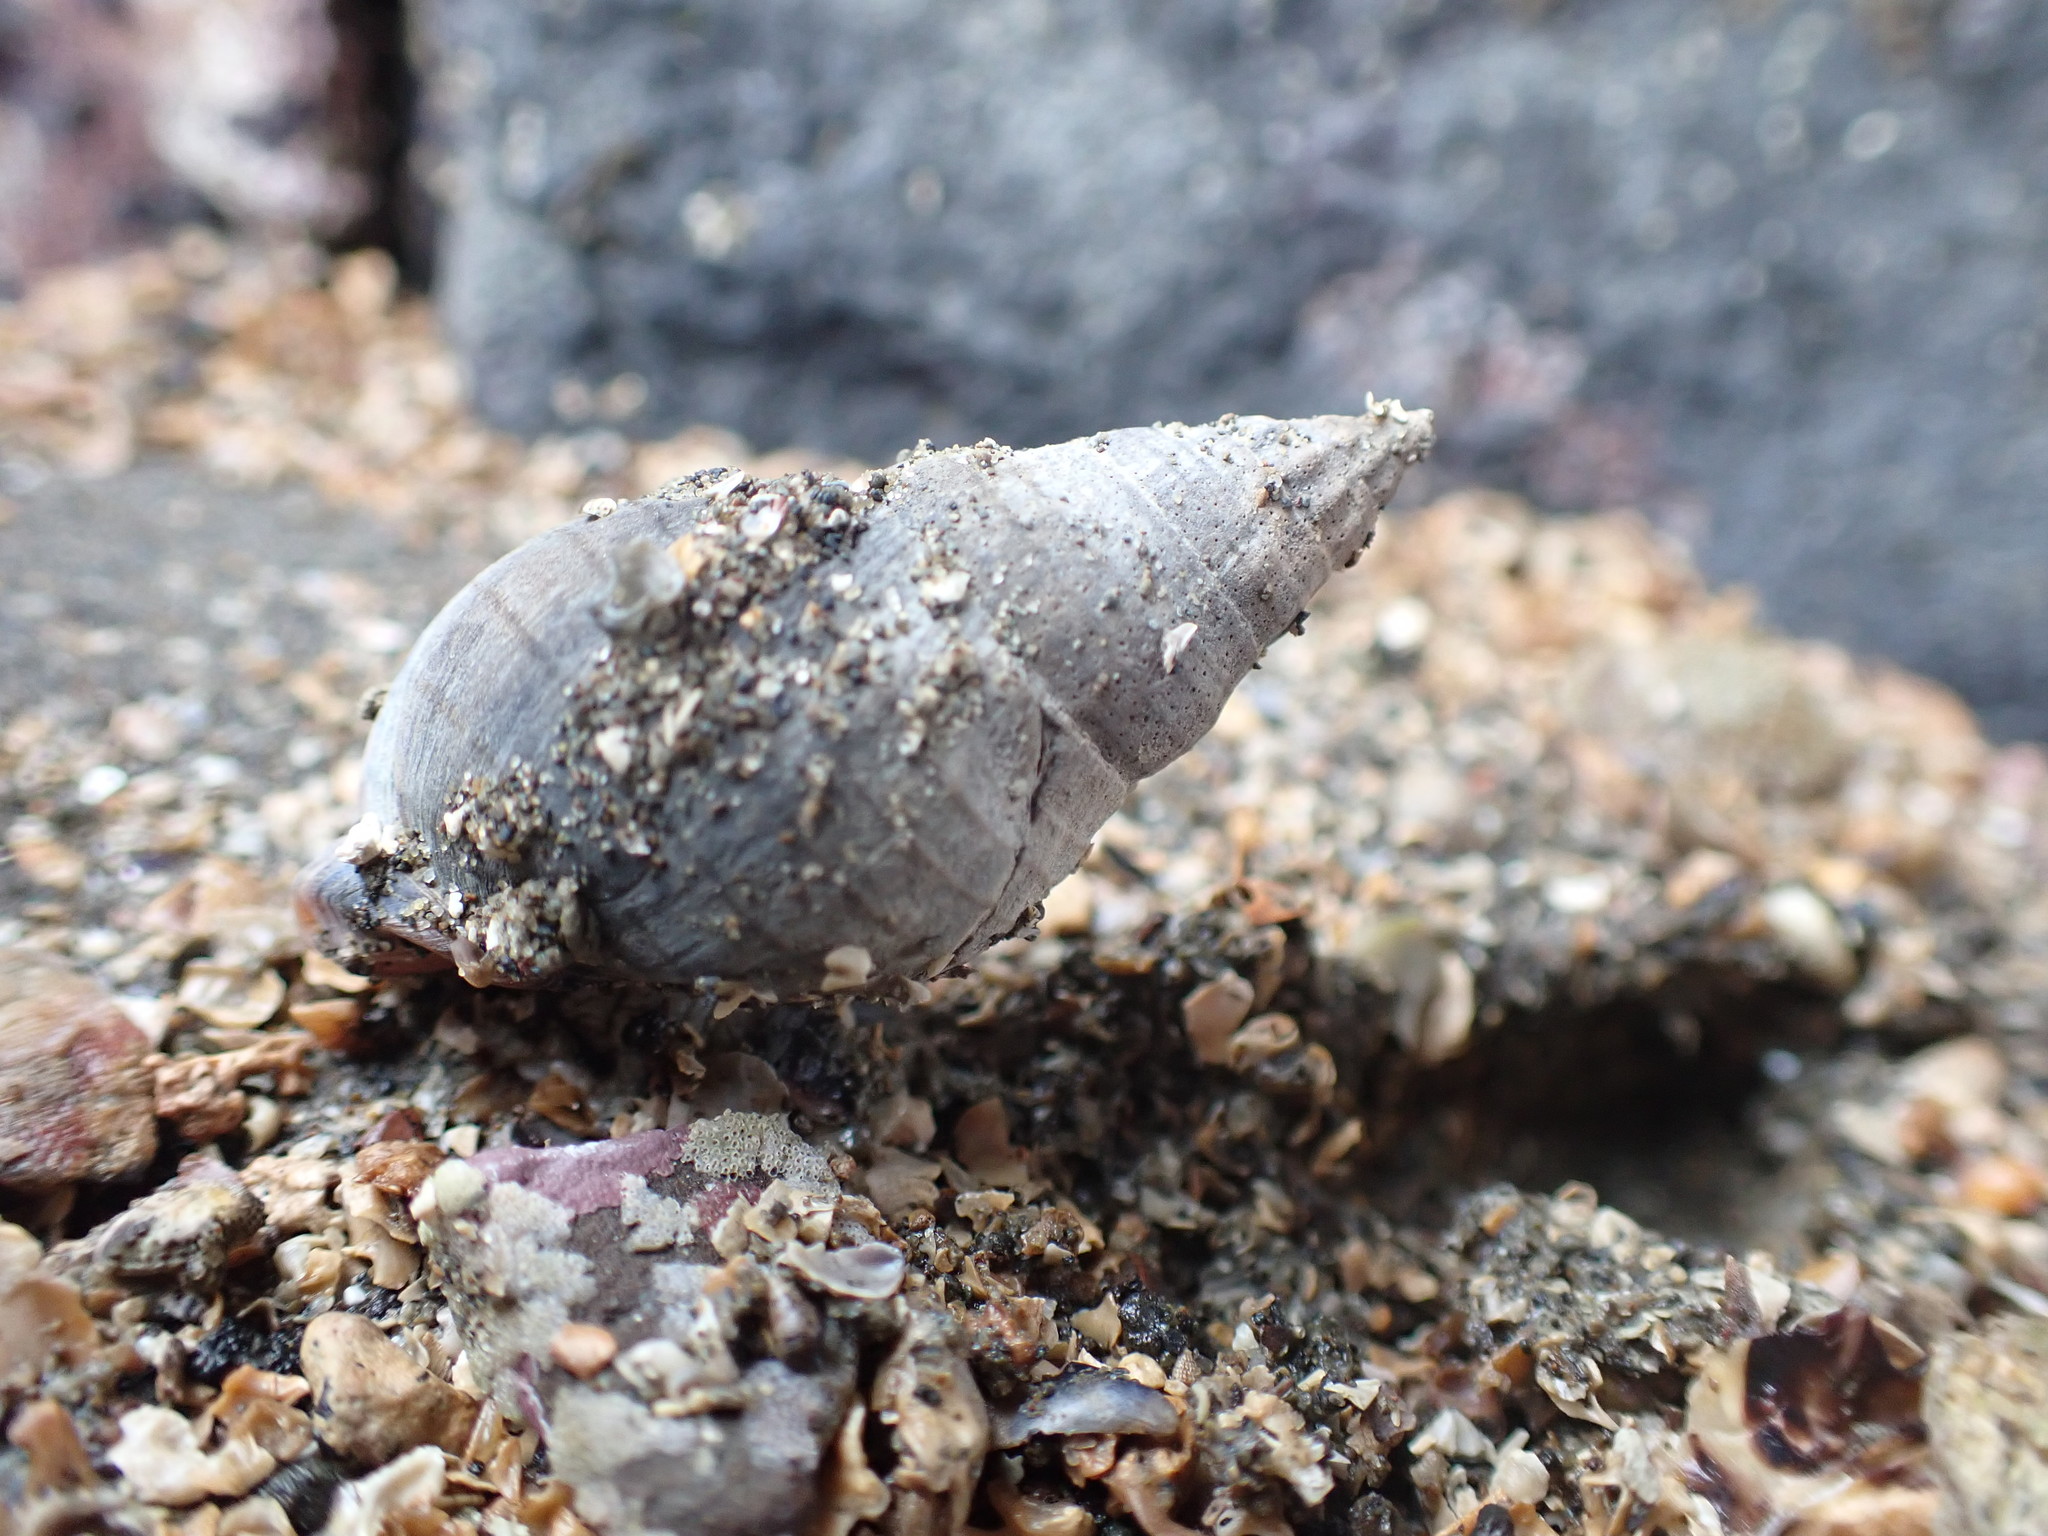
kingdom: Animalia
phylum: Mollusca
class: Gastropoda
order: Neogastropoda
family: Cominellidae
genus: Cominella
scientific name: Cominella virgata
